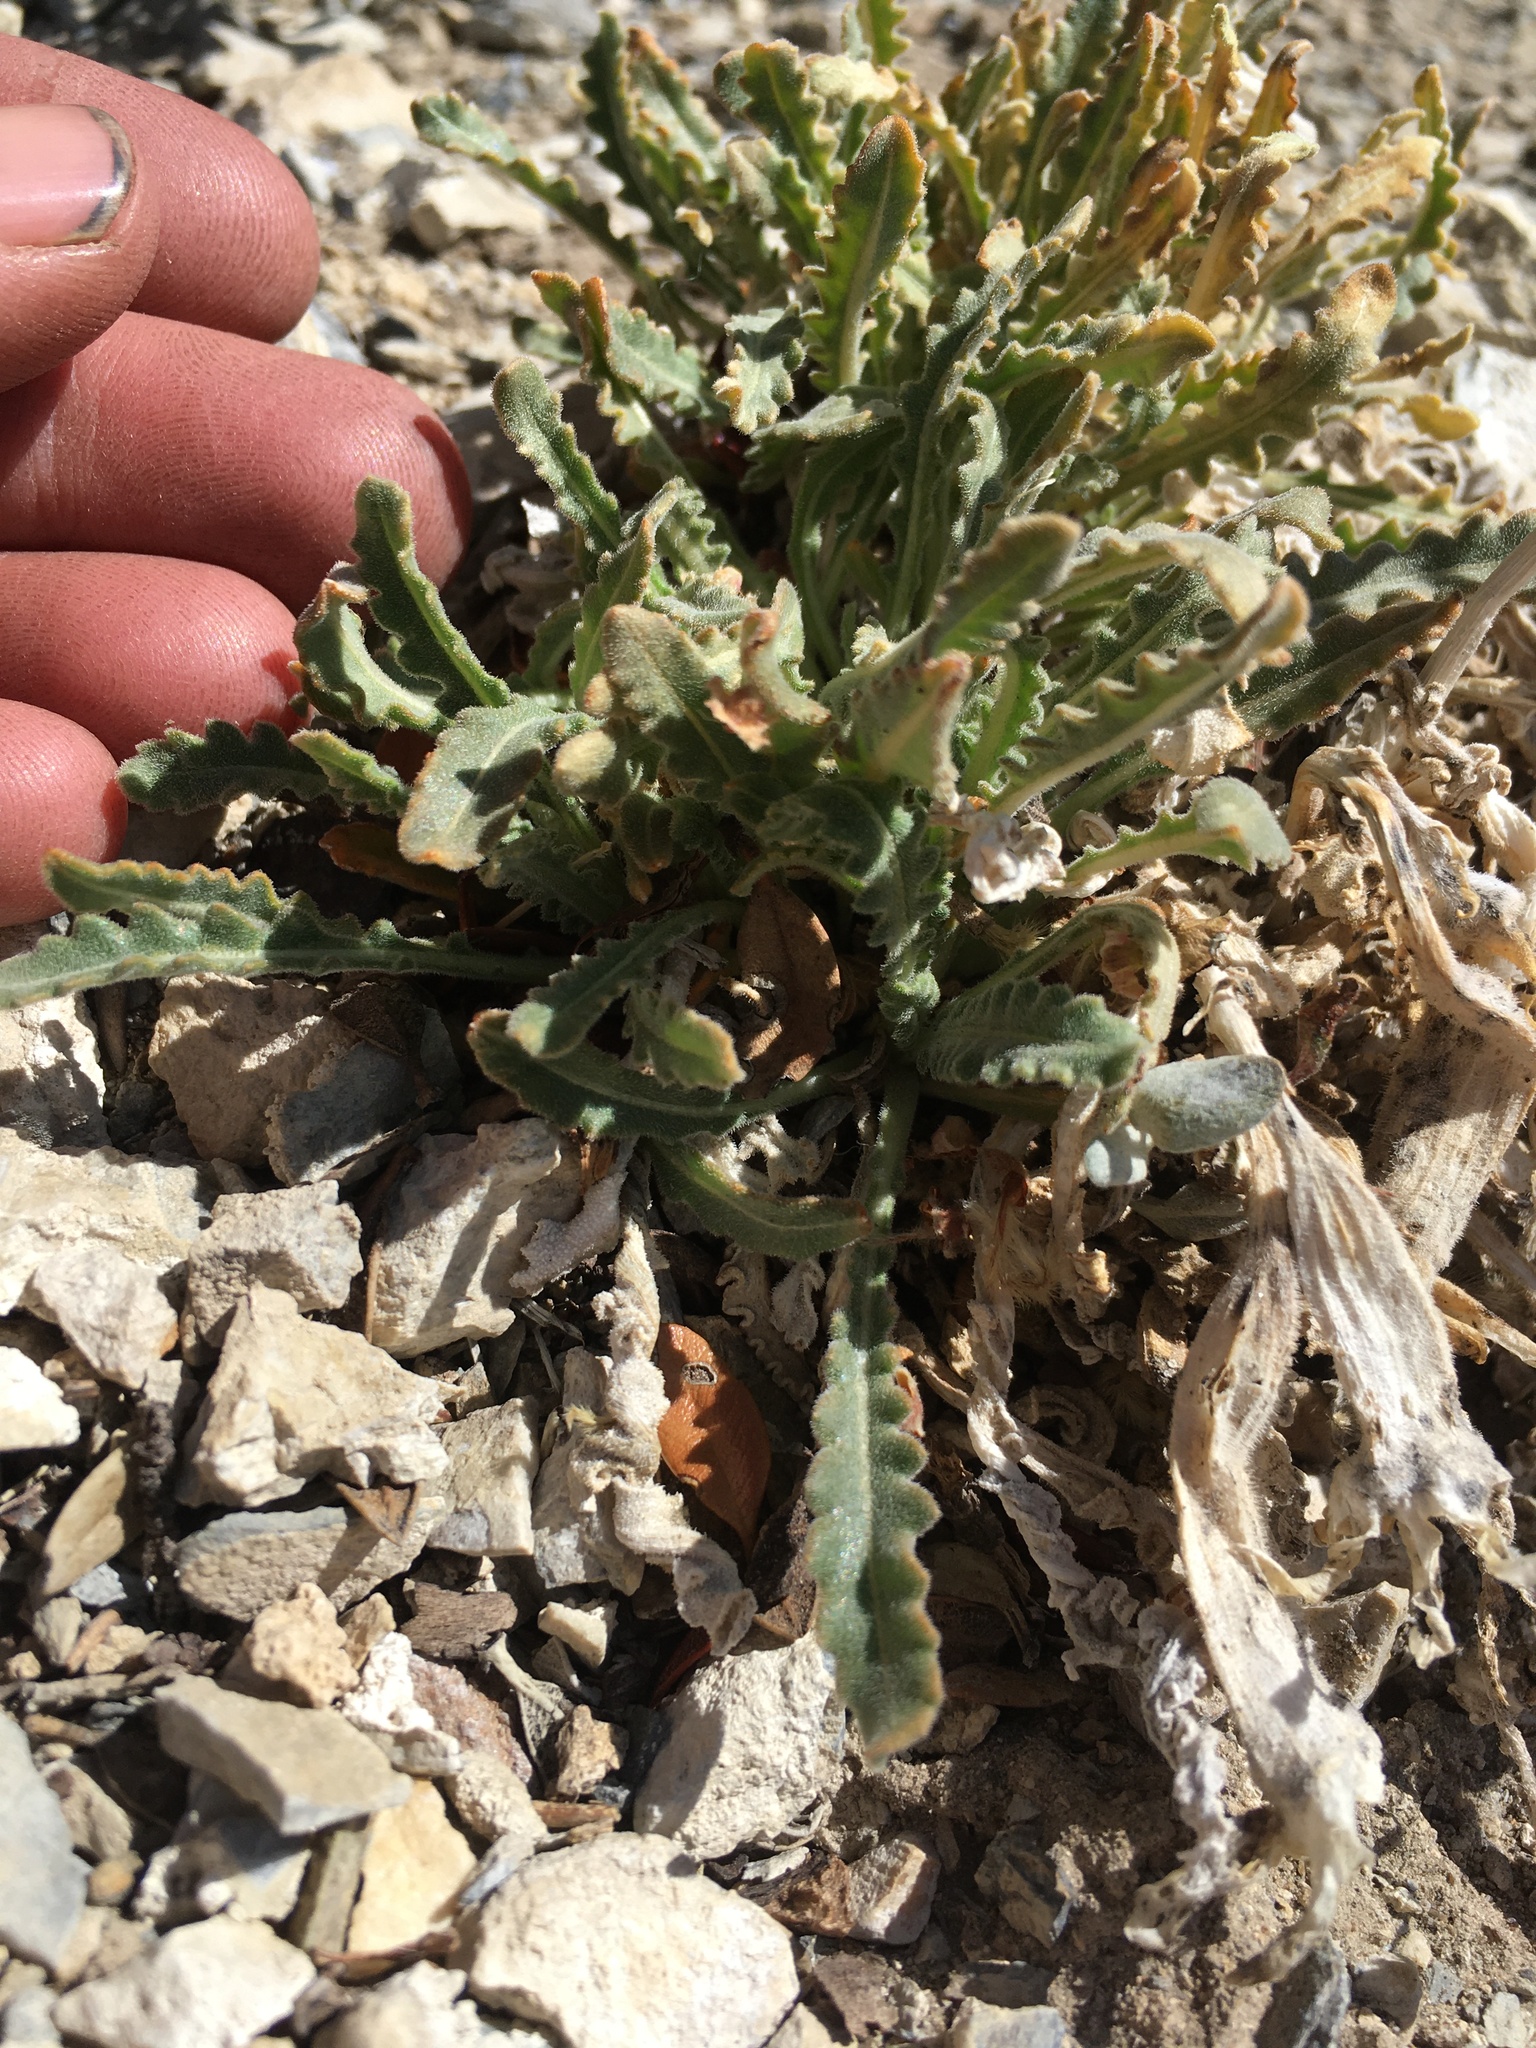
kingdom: Plantae
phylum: Tracheophyta
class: Magnoliopsida
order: Cornales
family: Loasaceae
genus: Mentzelia
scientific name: Mentzelia laevicaulis
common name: Smooth-stem blazingstar
